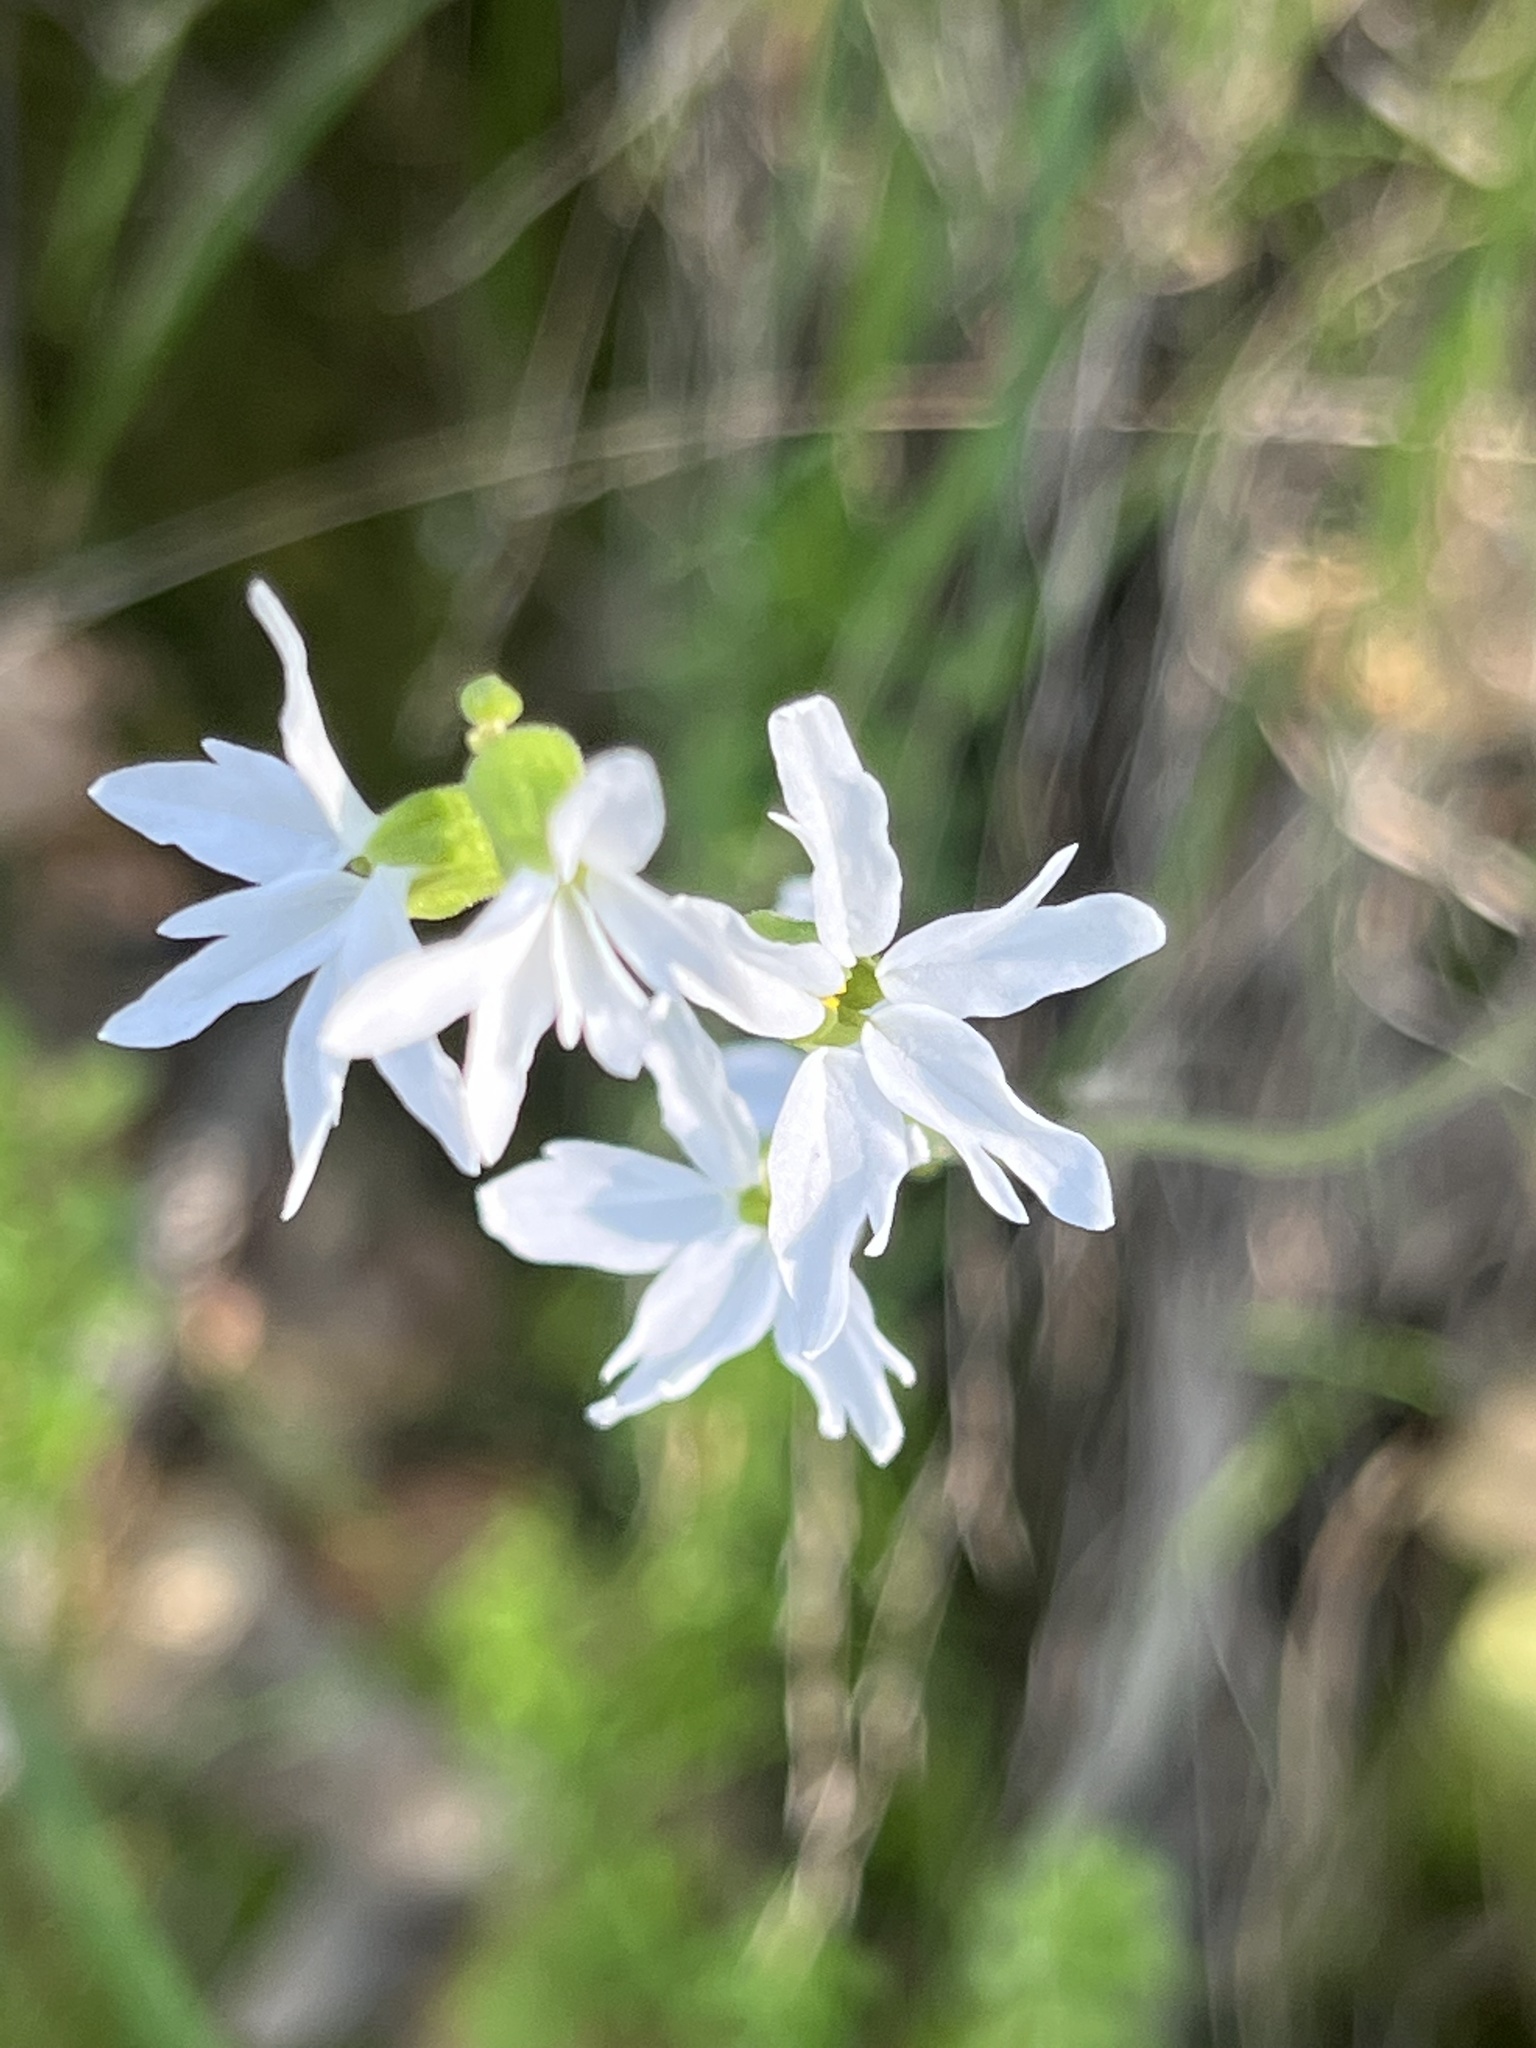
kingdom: Plantae
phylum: Tracheophyta
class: Magnoliopsida
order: Saxifragales
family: Saxifragaceae
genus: Lithophragma
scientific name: Lithophragma heterophyllum
